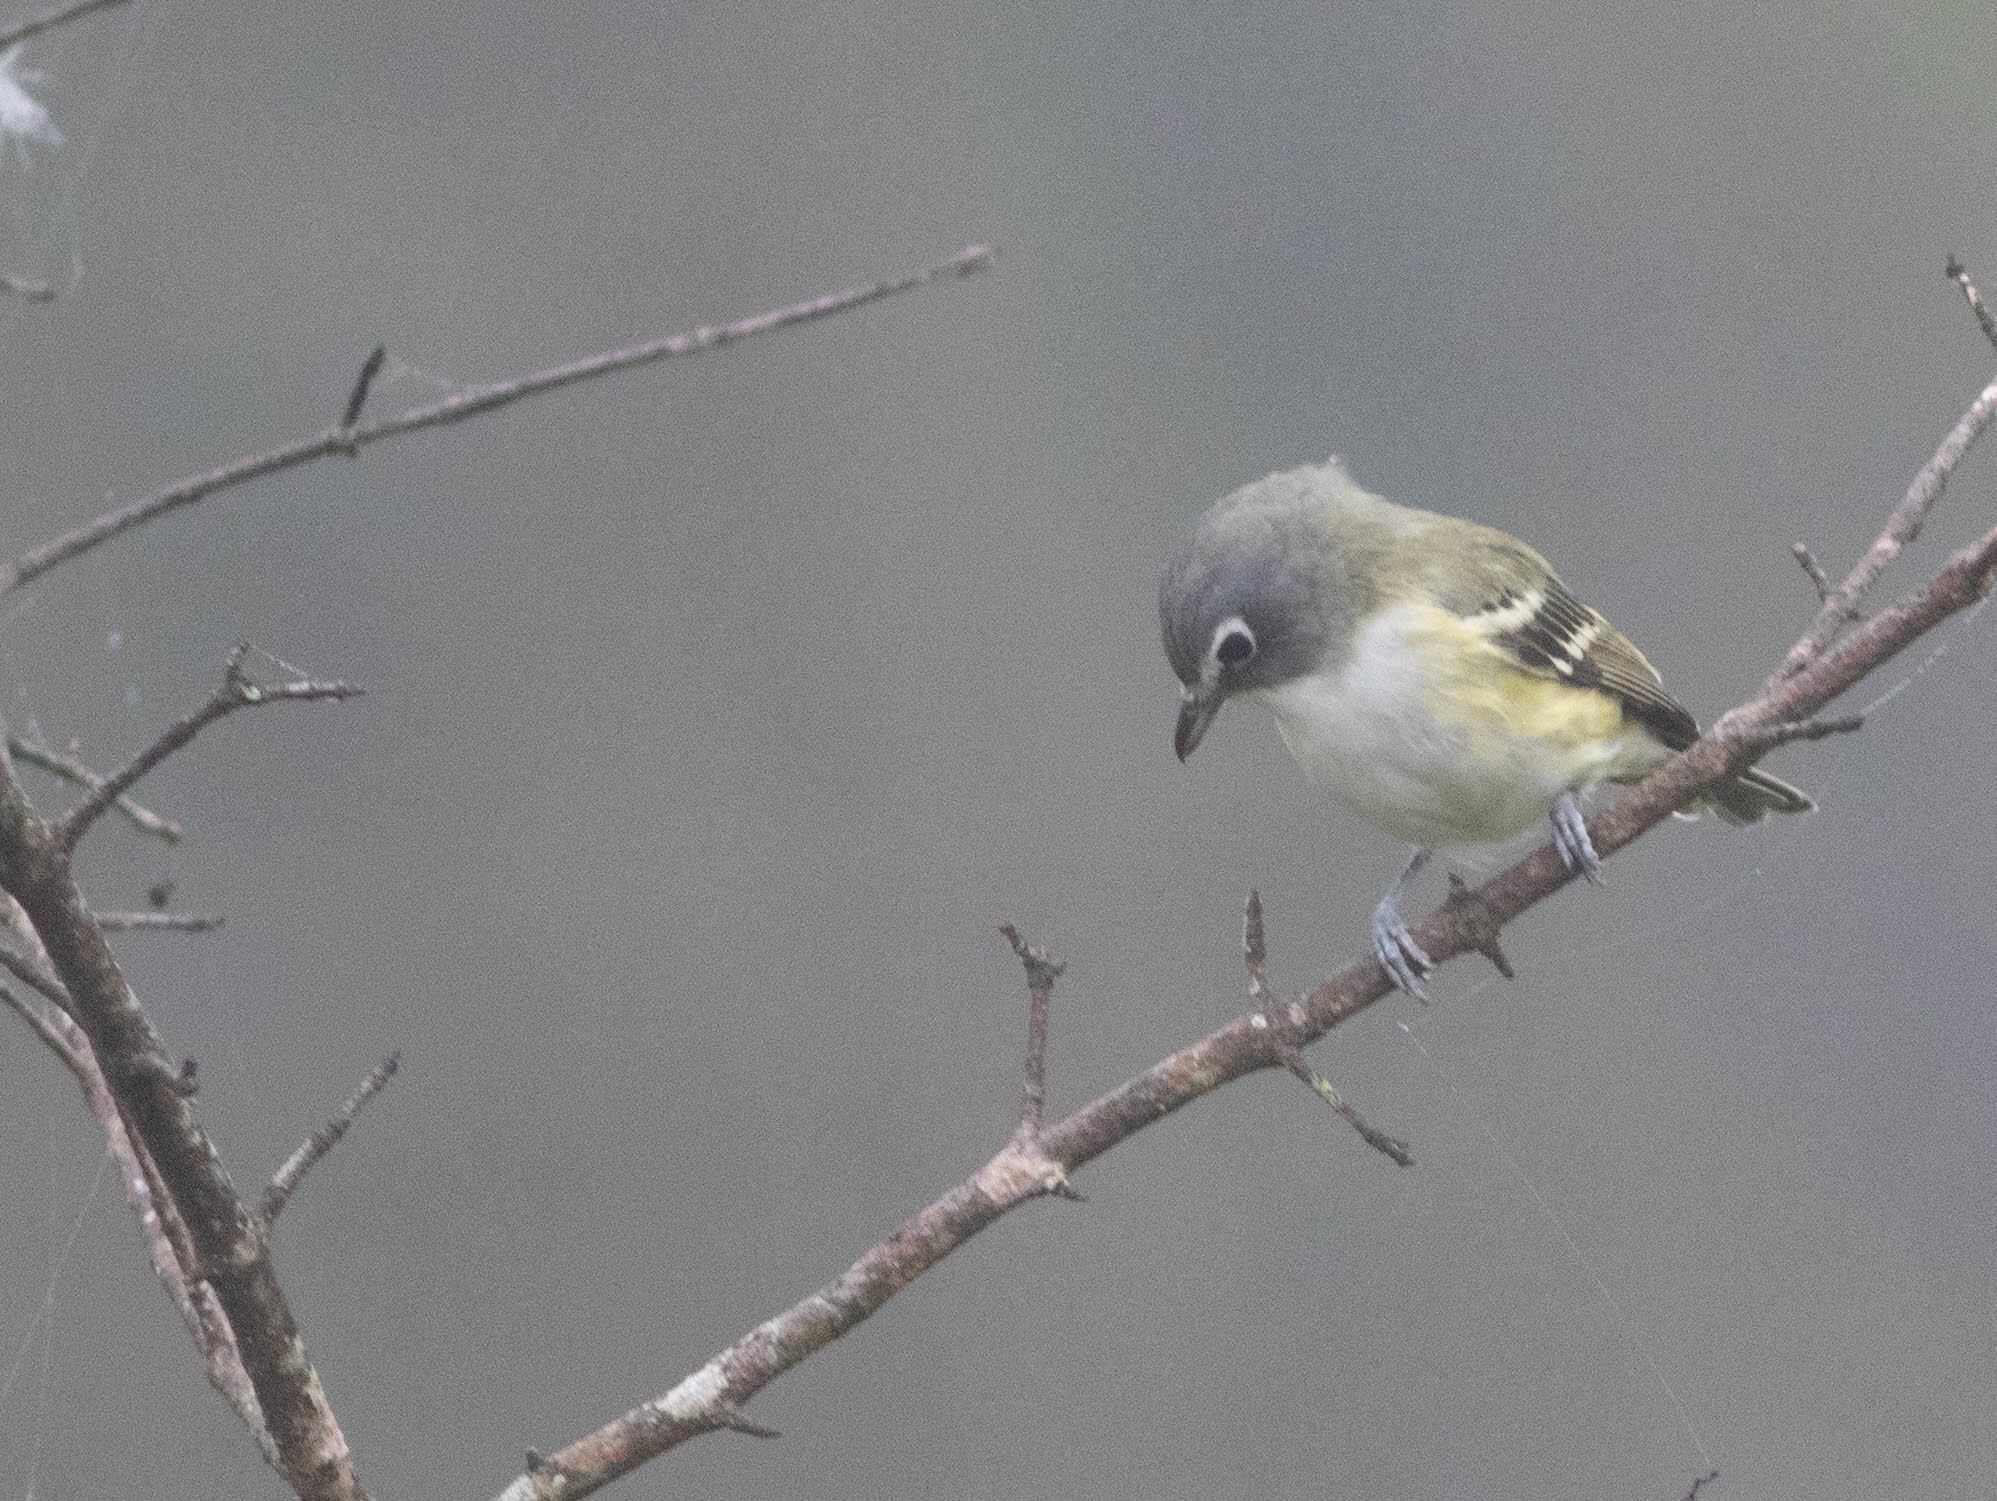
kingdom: Animalia
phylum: Chordata
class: Aves
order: Passeriformes
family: Vireonidae
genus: Vireo
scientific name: Vireo solitarius
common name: Blue-headed vireo
